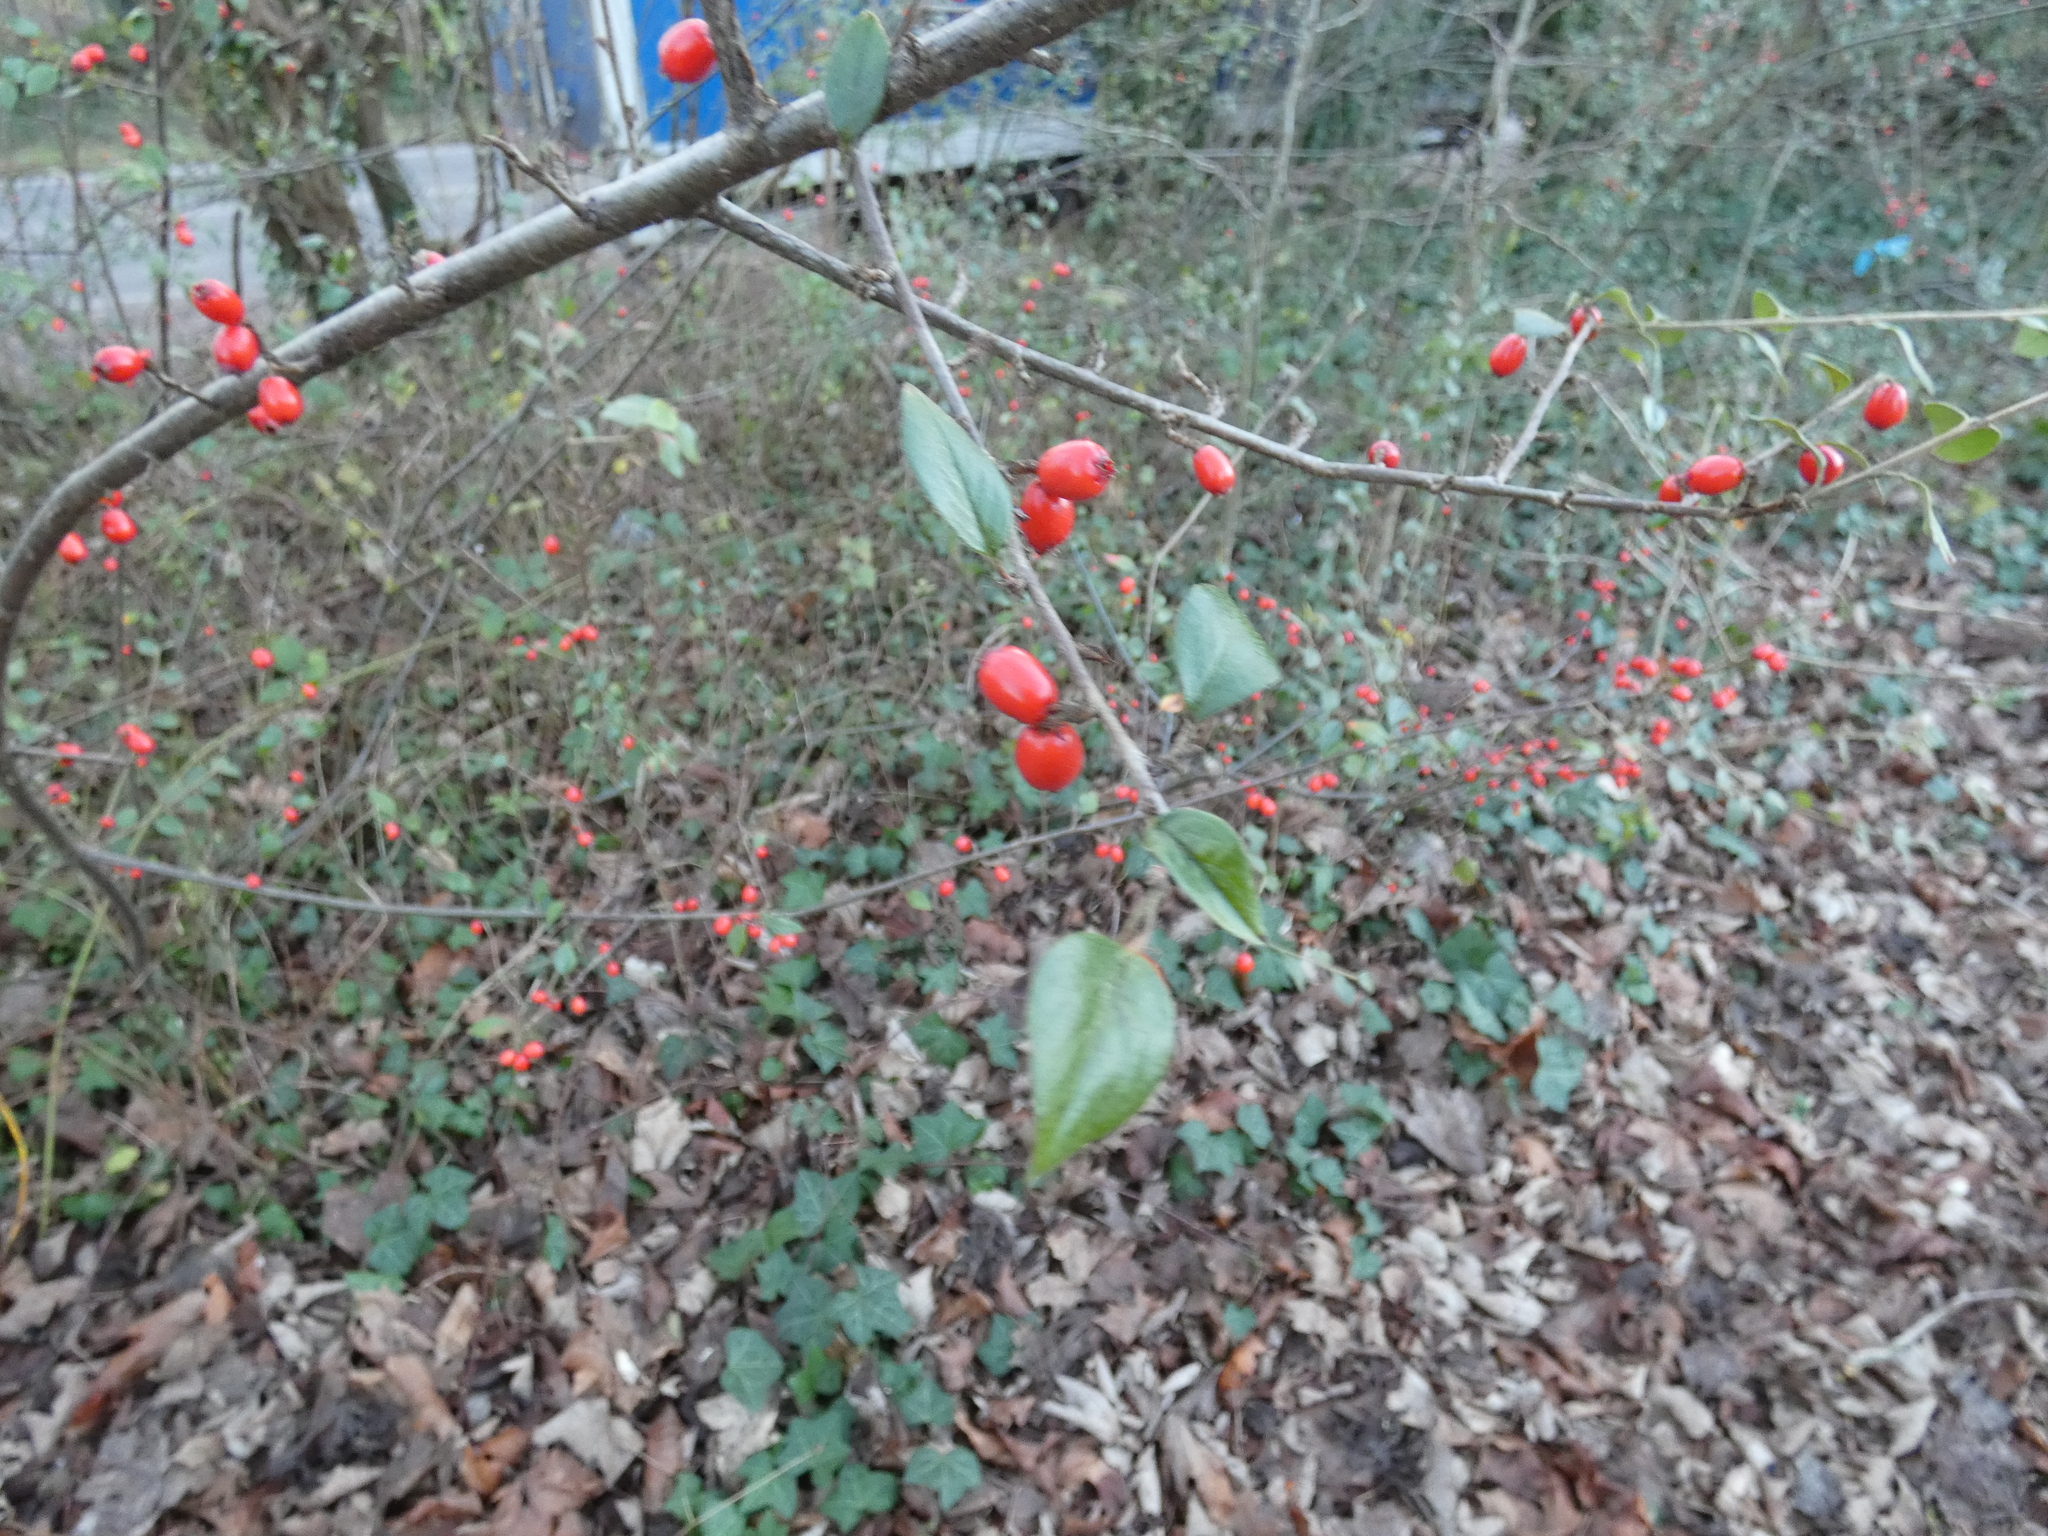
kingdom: Plantae
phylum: Tracheophyta
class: Magnoliopsida
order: Rosales
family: Rosaceae
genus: Cotoneaster
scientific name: Cotoneaster simonsii
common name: Himalayan cotoneaster
